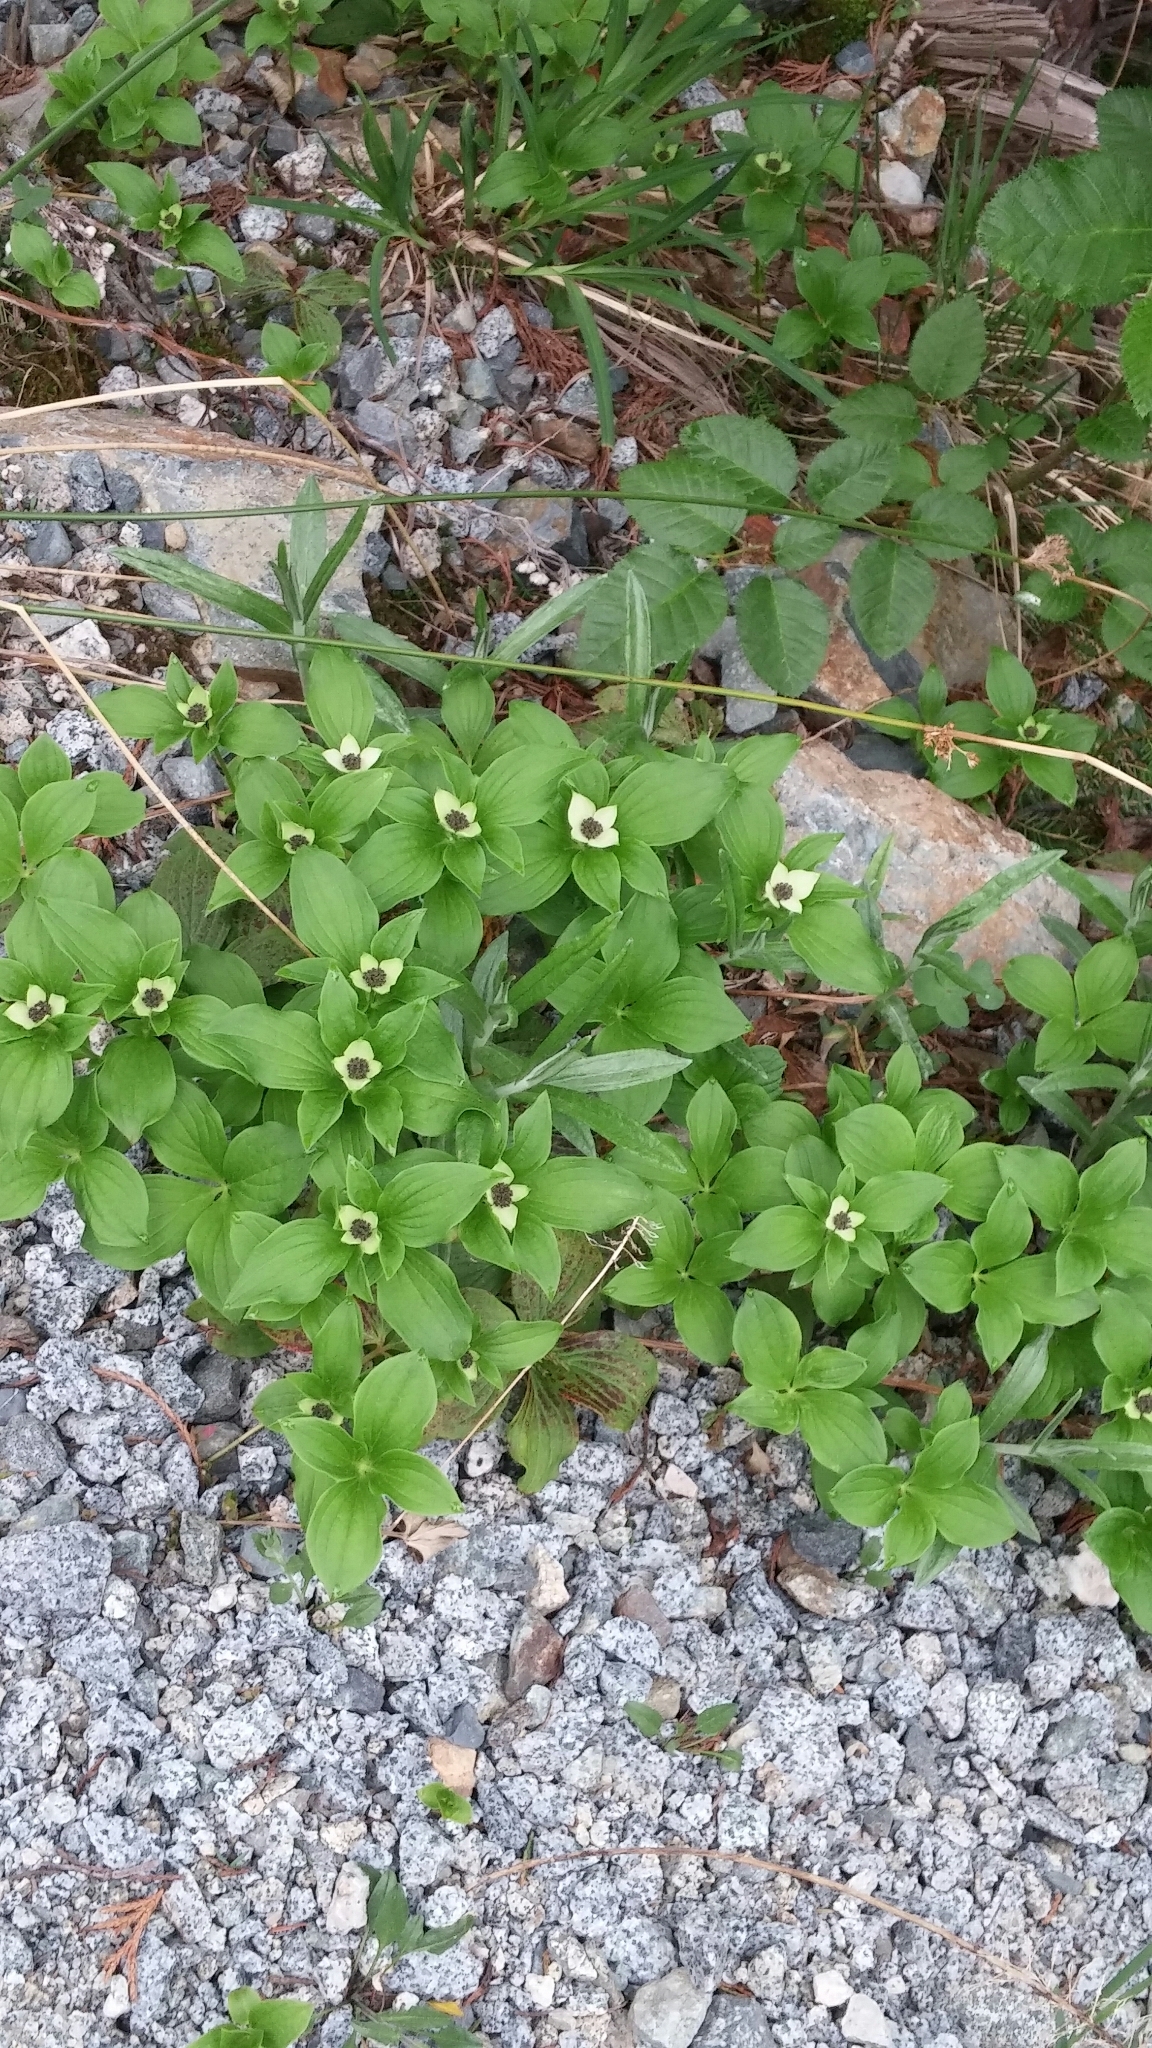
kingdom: Plantae
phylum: Tracheophyta
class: Magnoliopsida
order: Cornales
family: Cornaceae
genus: Cornus
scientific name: Cornus unalaschkensis
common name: Alaska bunchberry
